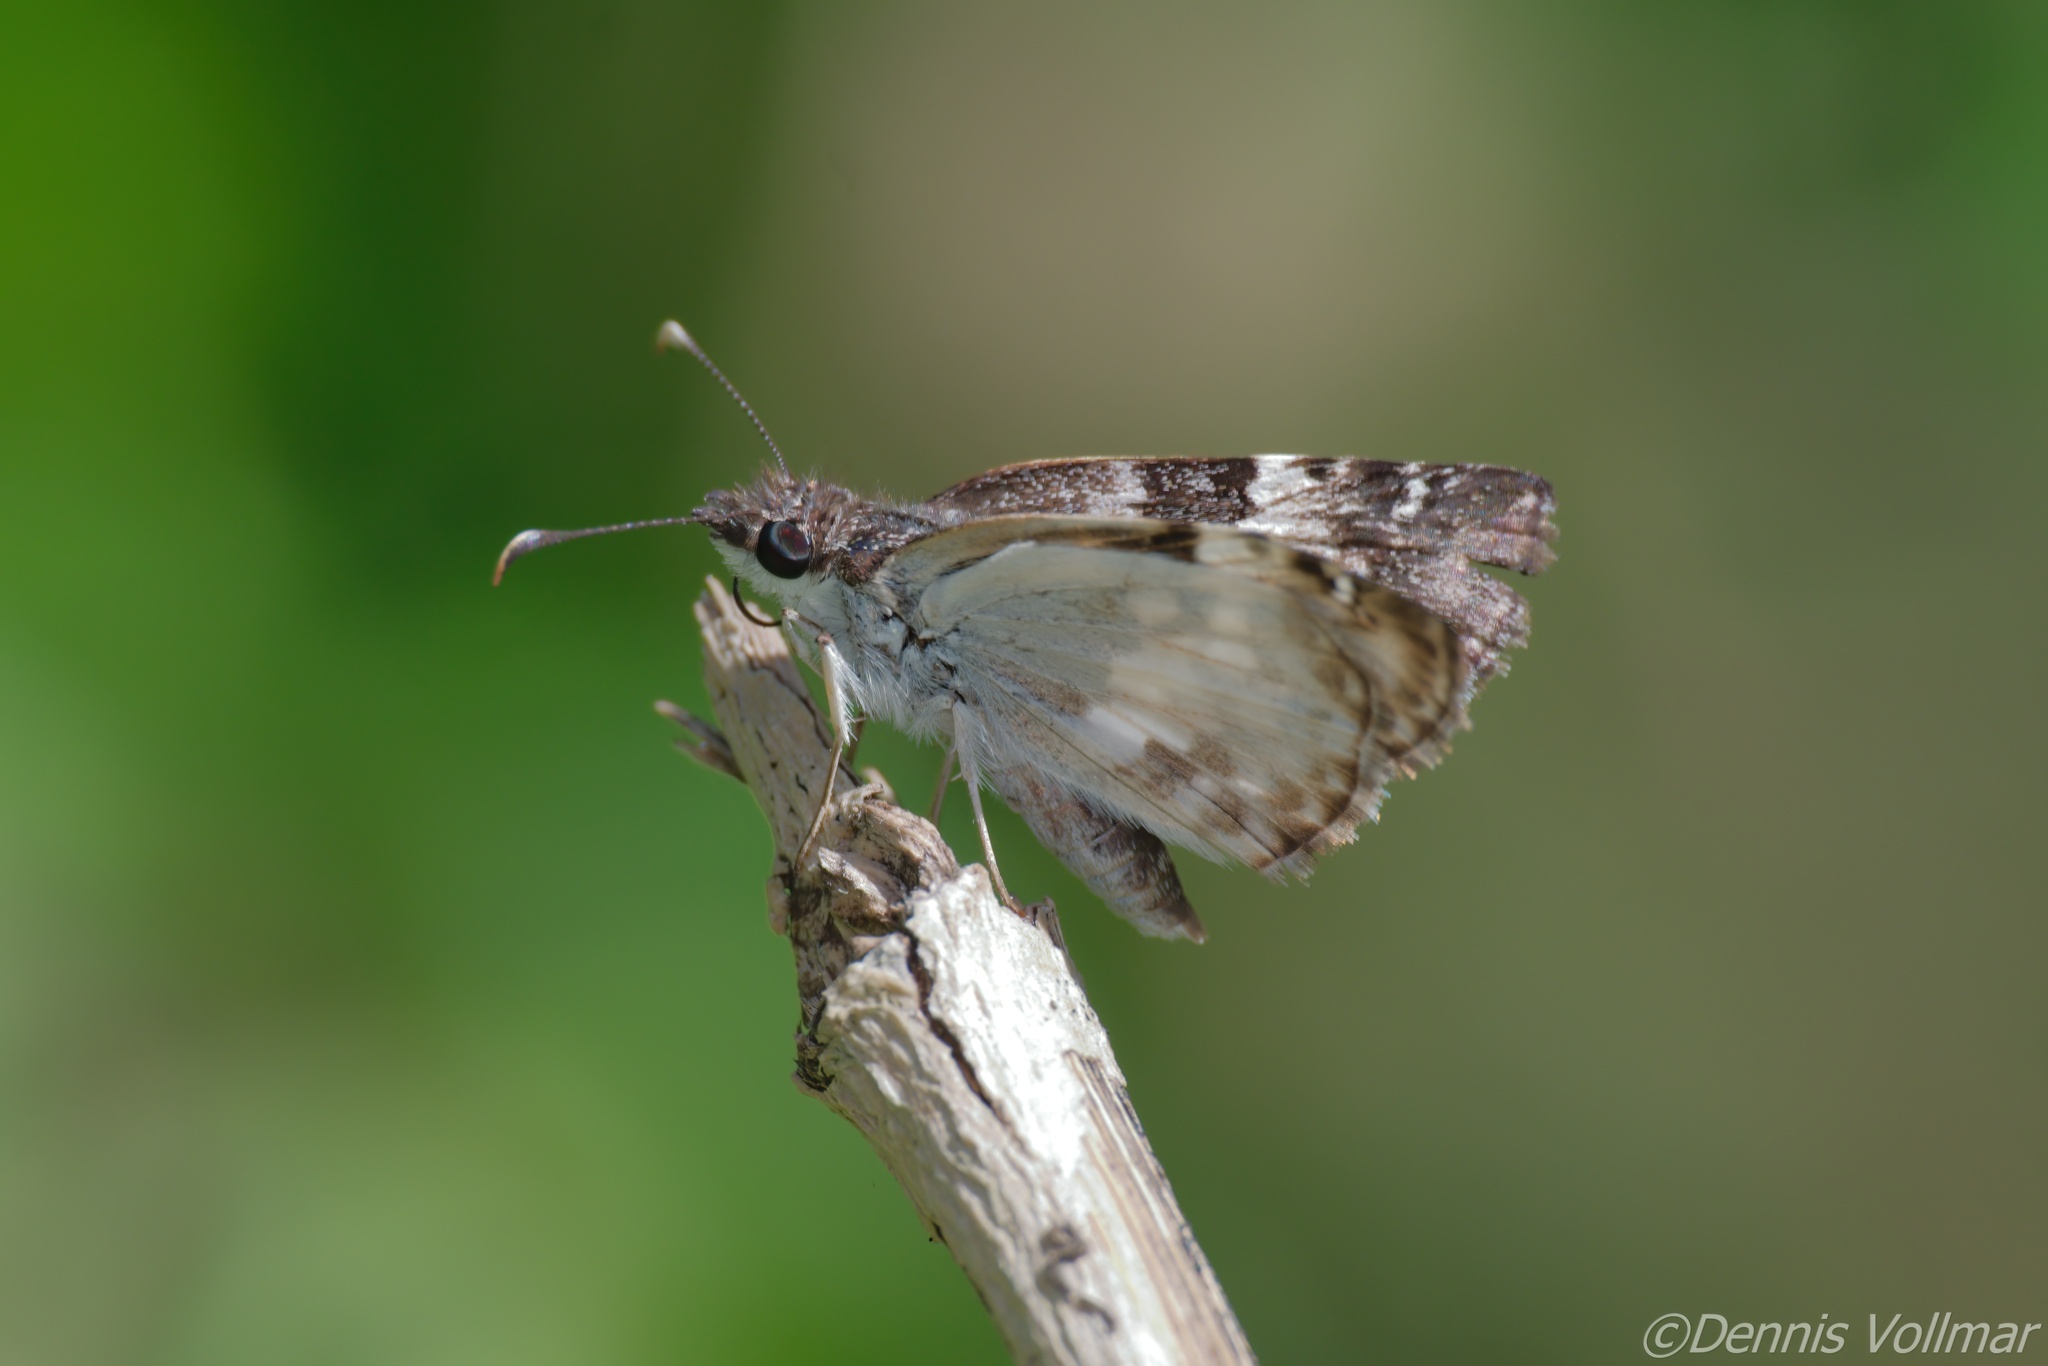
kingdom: Animalia
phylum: Arthropoda
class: Insecta
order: Lepidoptera
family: Hesperiidae
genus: Chiothion
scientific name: Chiothion georgina
